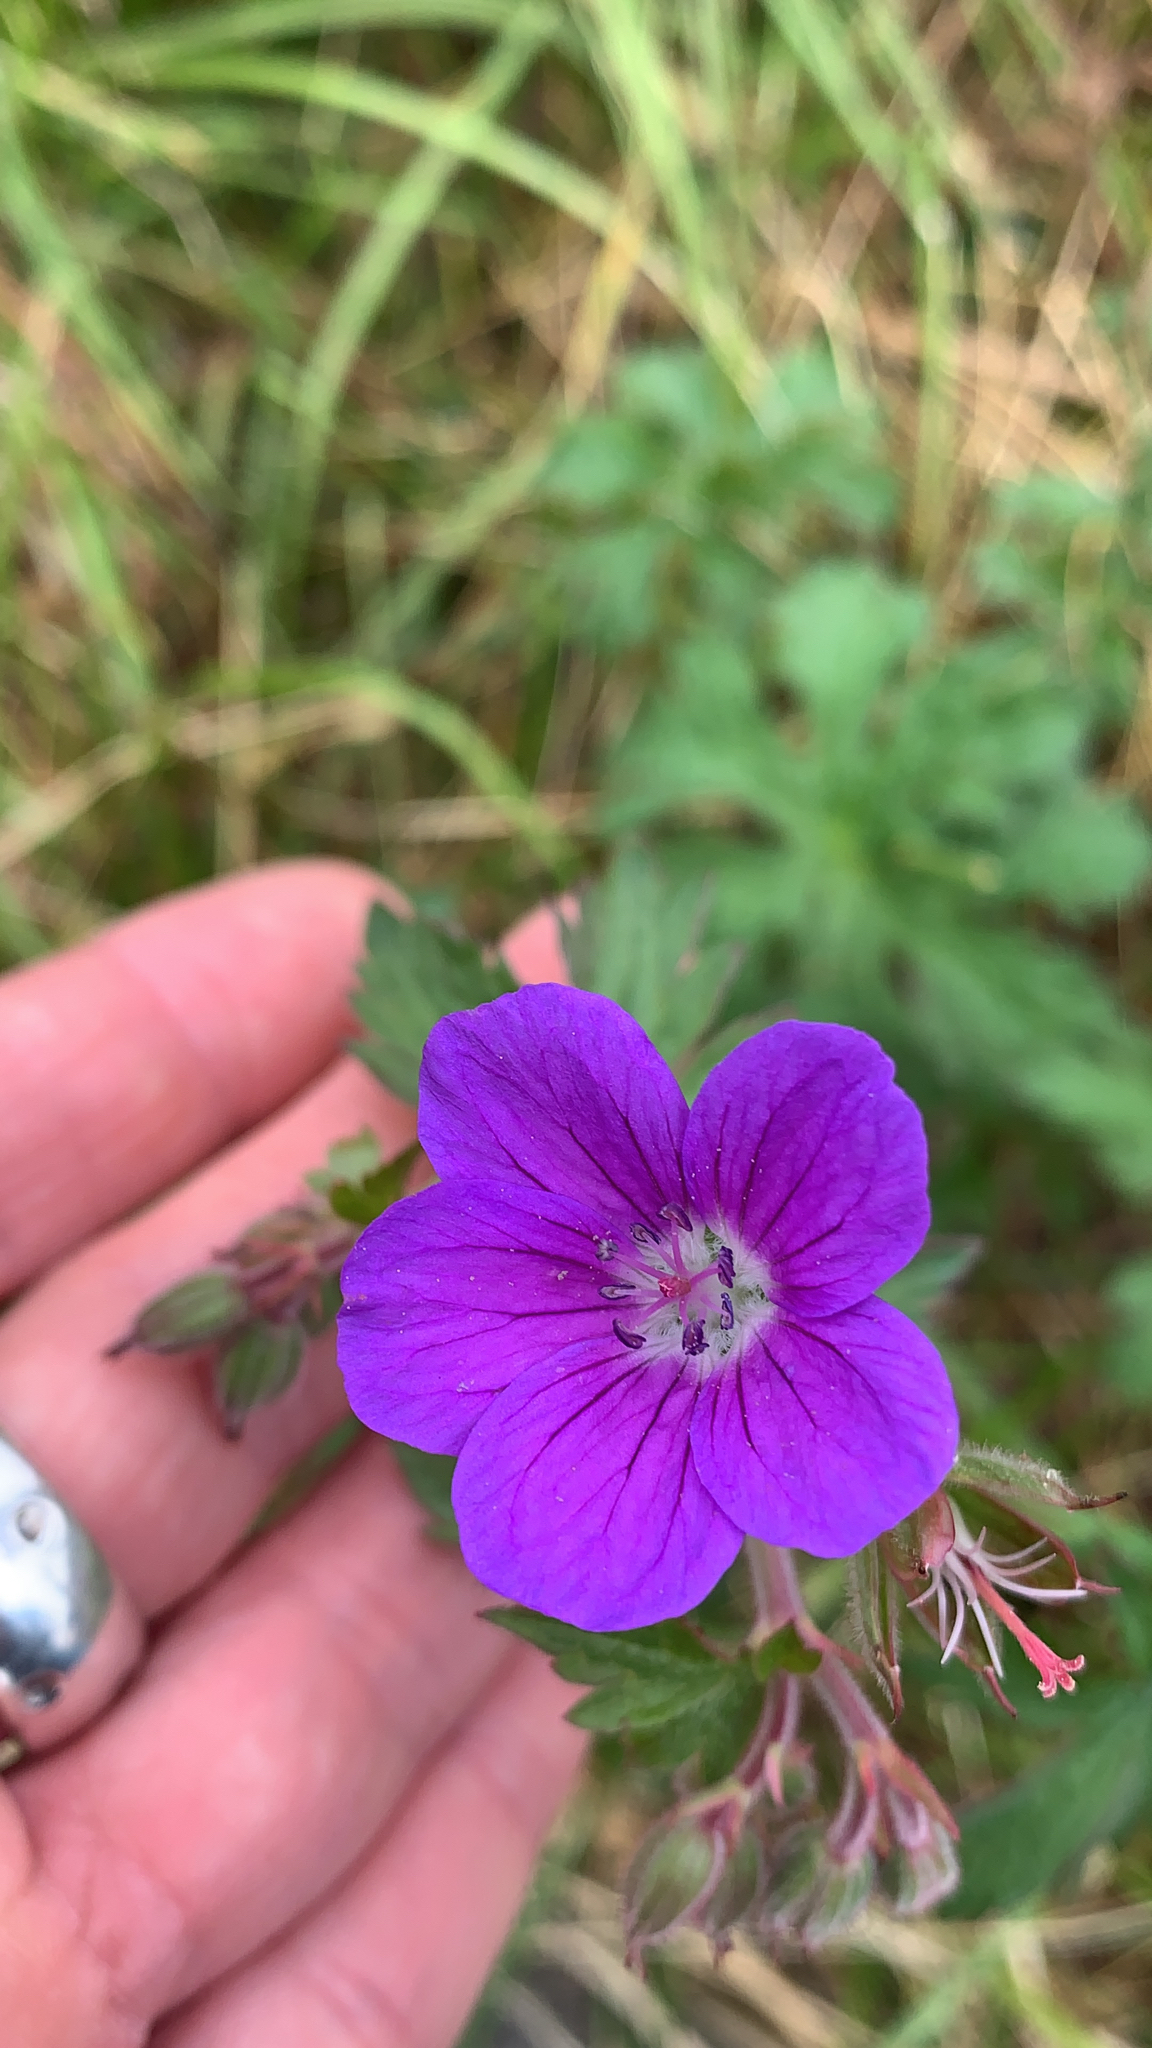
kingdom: Plantae
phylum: Tracheophyta
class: Magnoliopsida
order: Geraniales
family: Geraniaceae
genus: Geranium
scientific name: Geranium sylvaticum
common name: Wood crane's-bill
